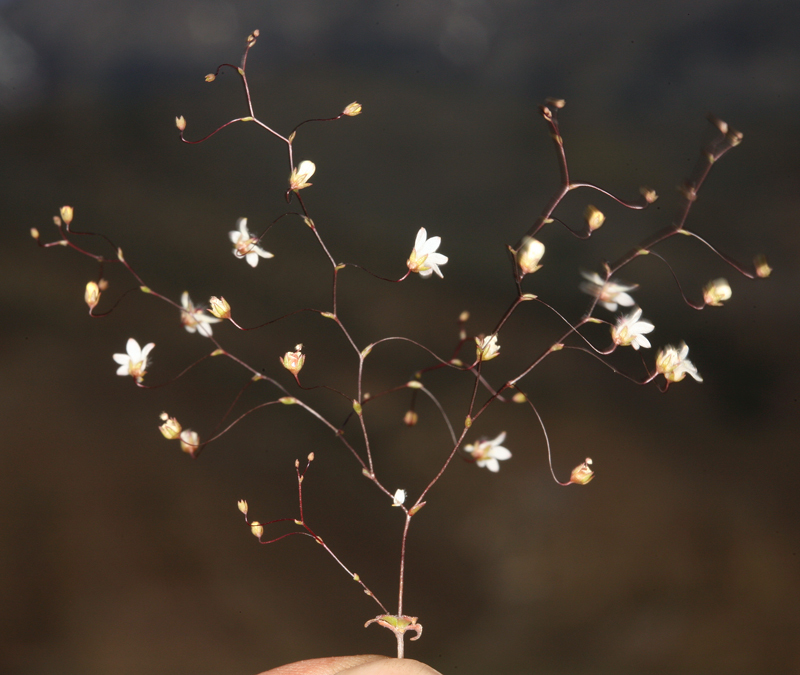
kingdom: Plantae
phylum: Tracheophyta
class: Magnoliopsida
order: Asterales
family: Campanulaceae
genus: Nemacladus
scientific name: Nemacladus matsonii
